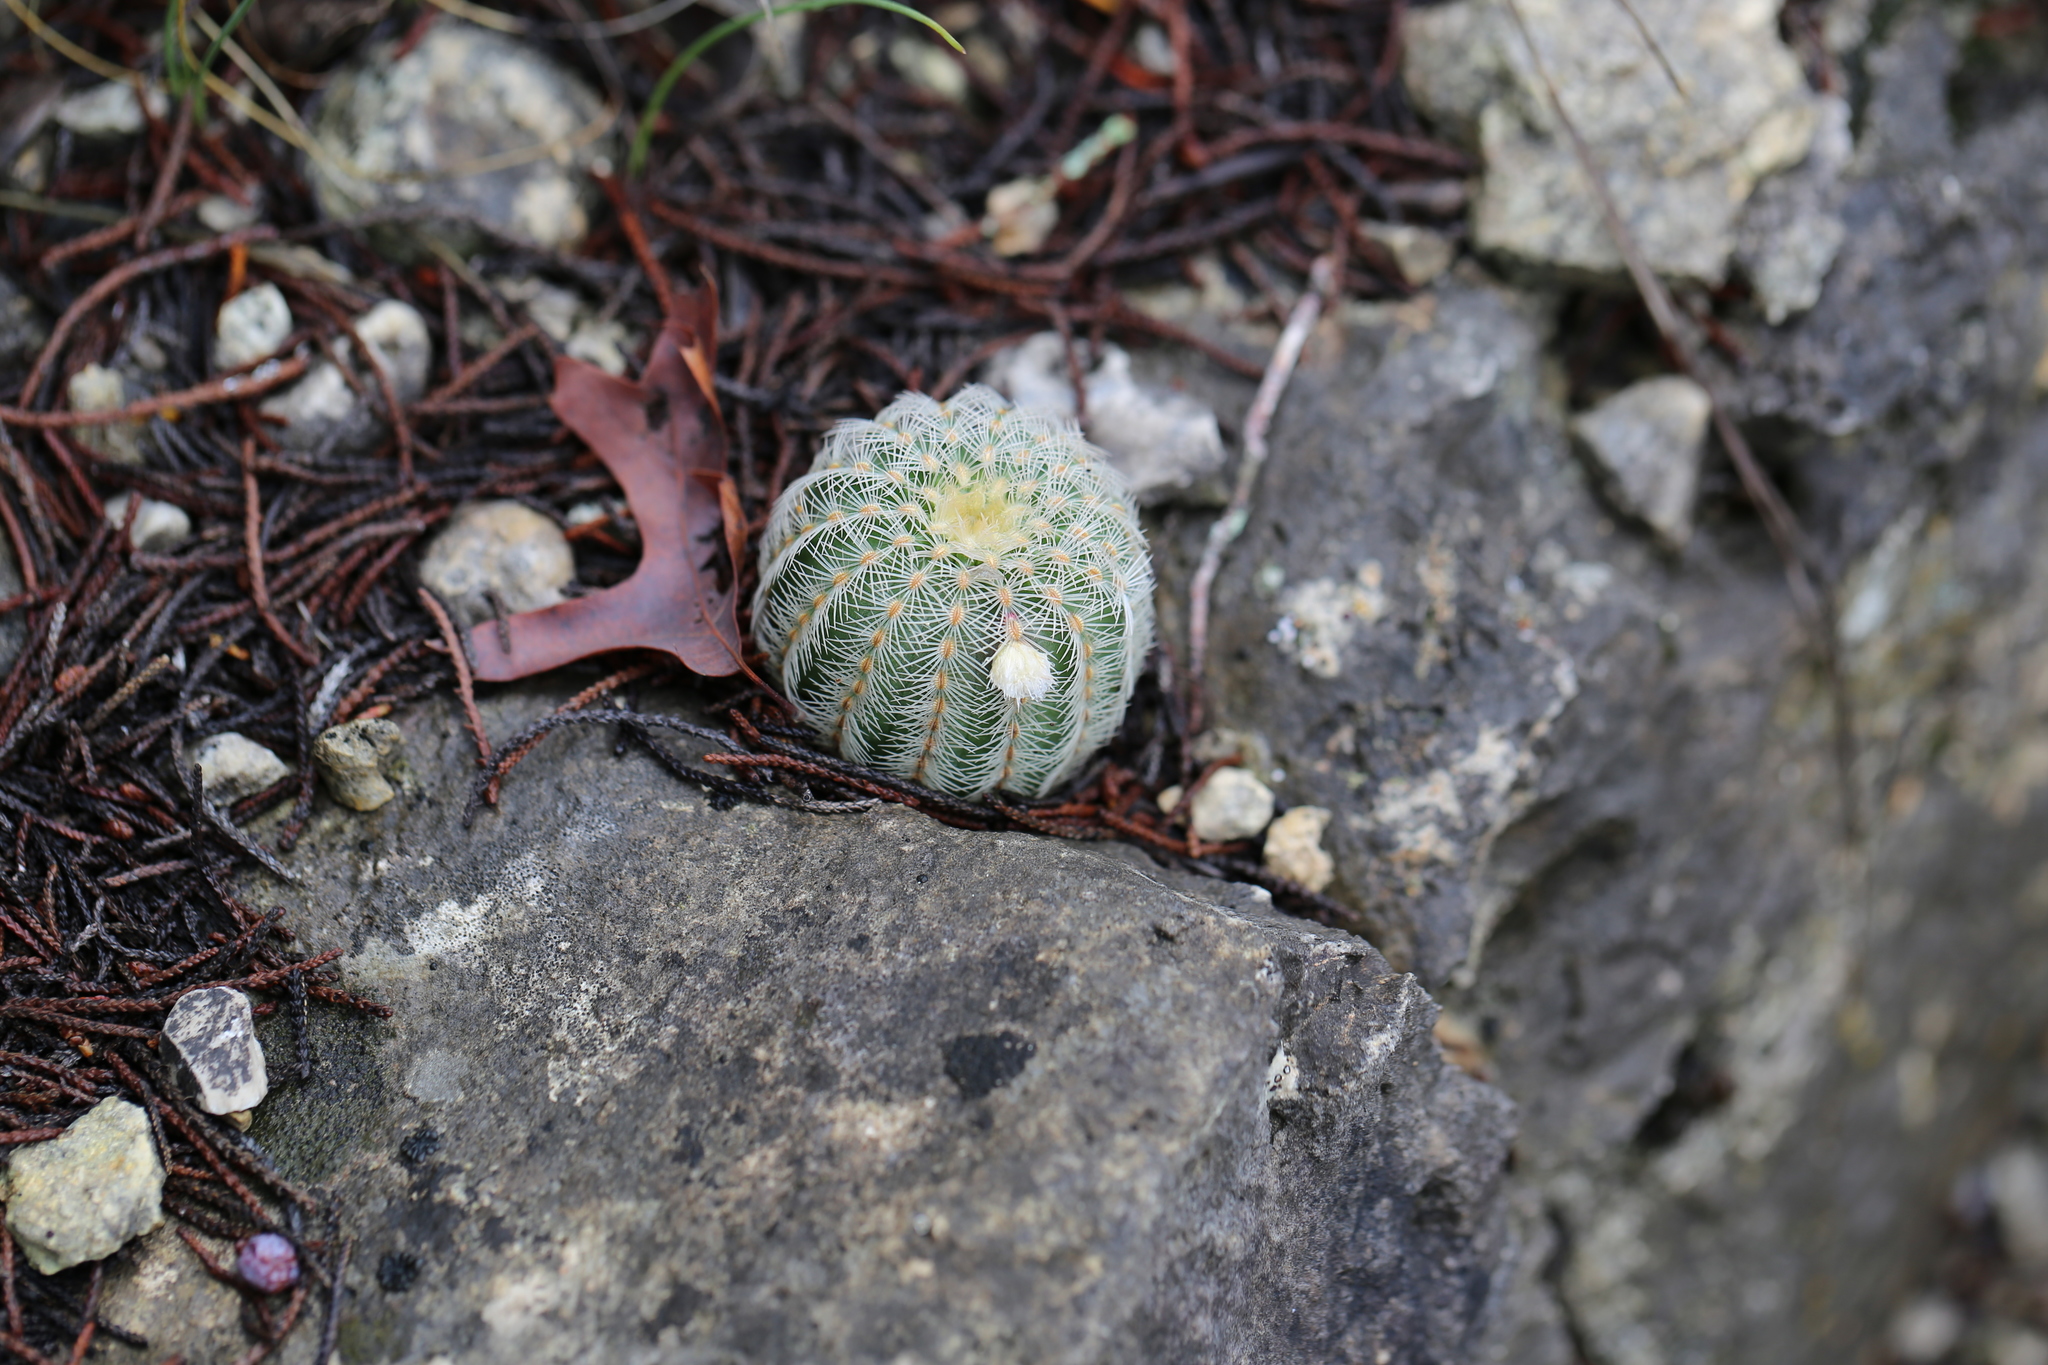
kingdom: Plantae
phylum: Tracheophyta
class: Magnoliopsida
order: Caryophyllales
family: Cactaceae
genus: Echinocereus
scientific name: Echinocereus reichenbachii
